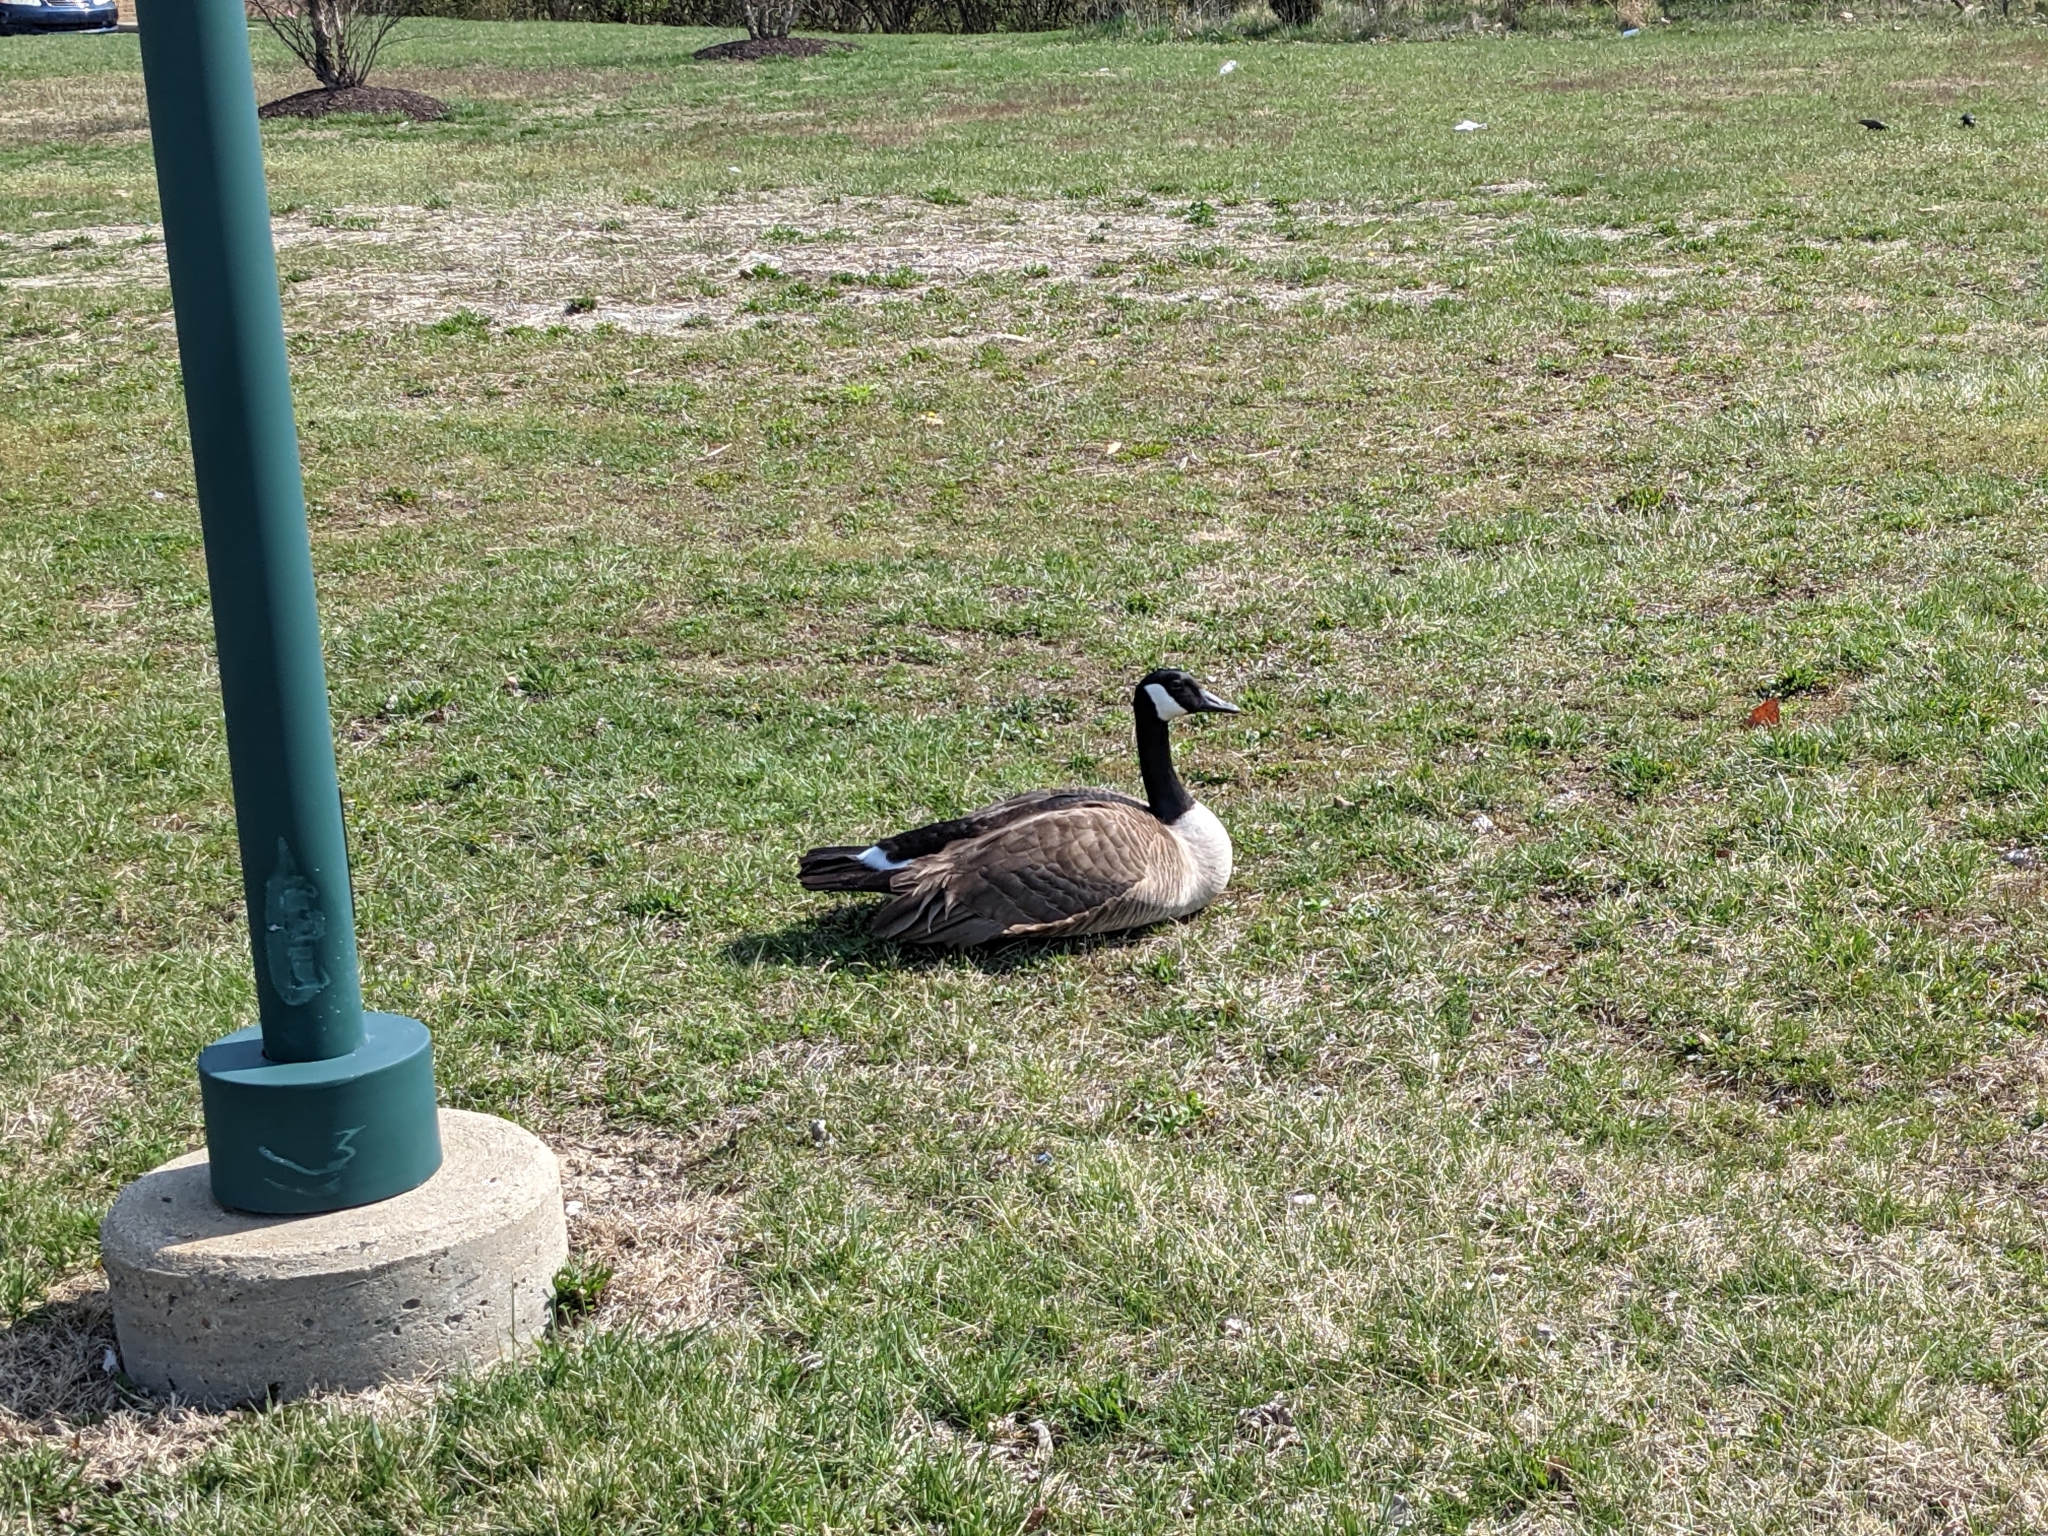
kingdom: Animalia
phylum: Chordata
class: Aves
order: Anseriformes
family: Anatidae
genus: Branta
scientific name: Branta canadensis
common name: Canada goose
